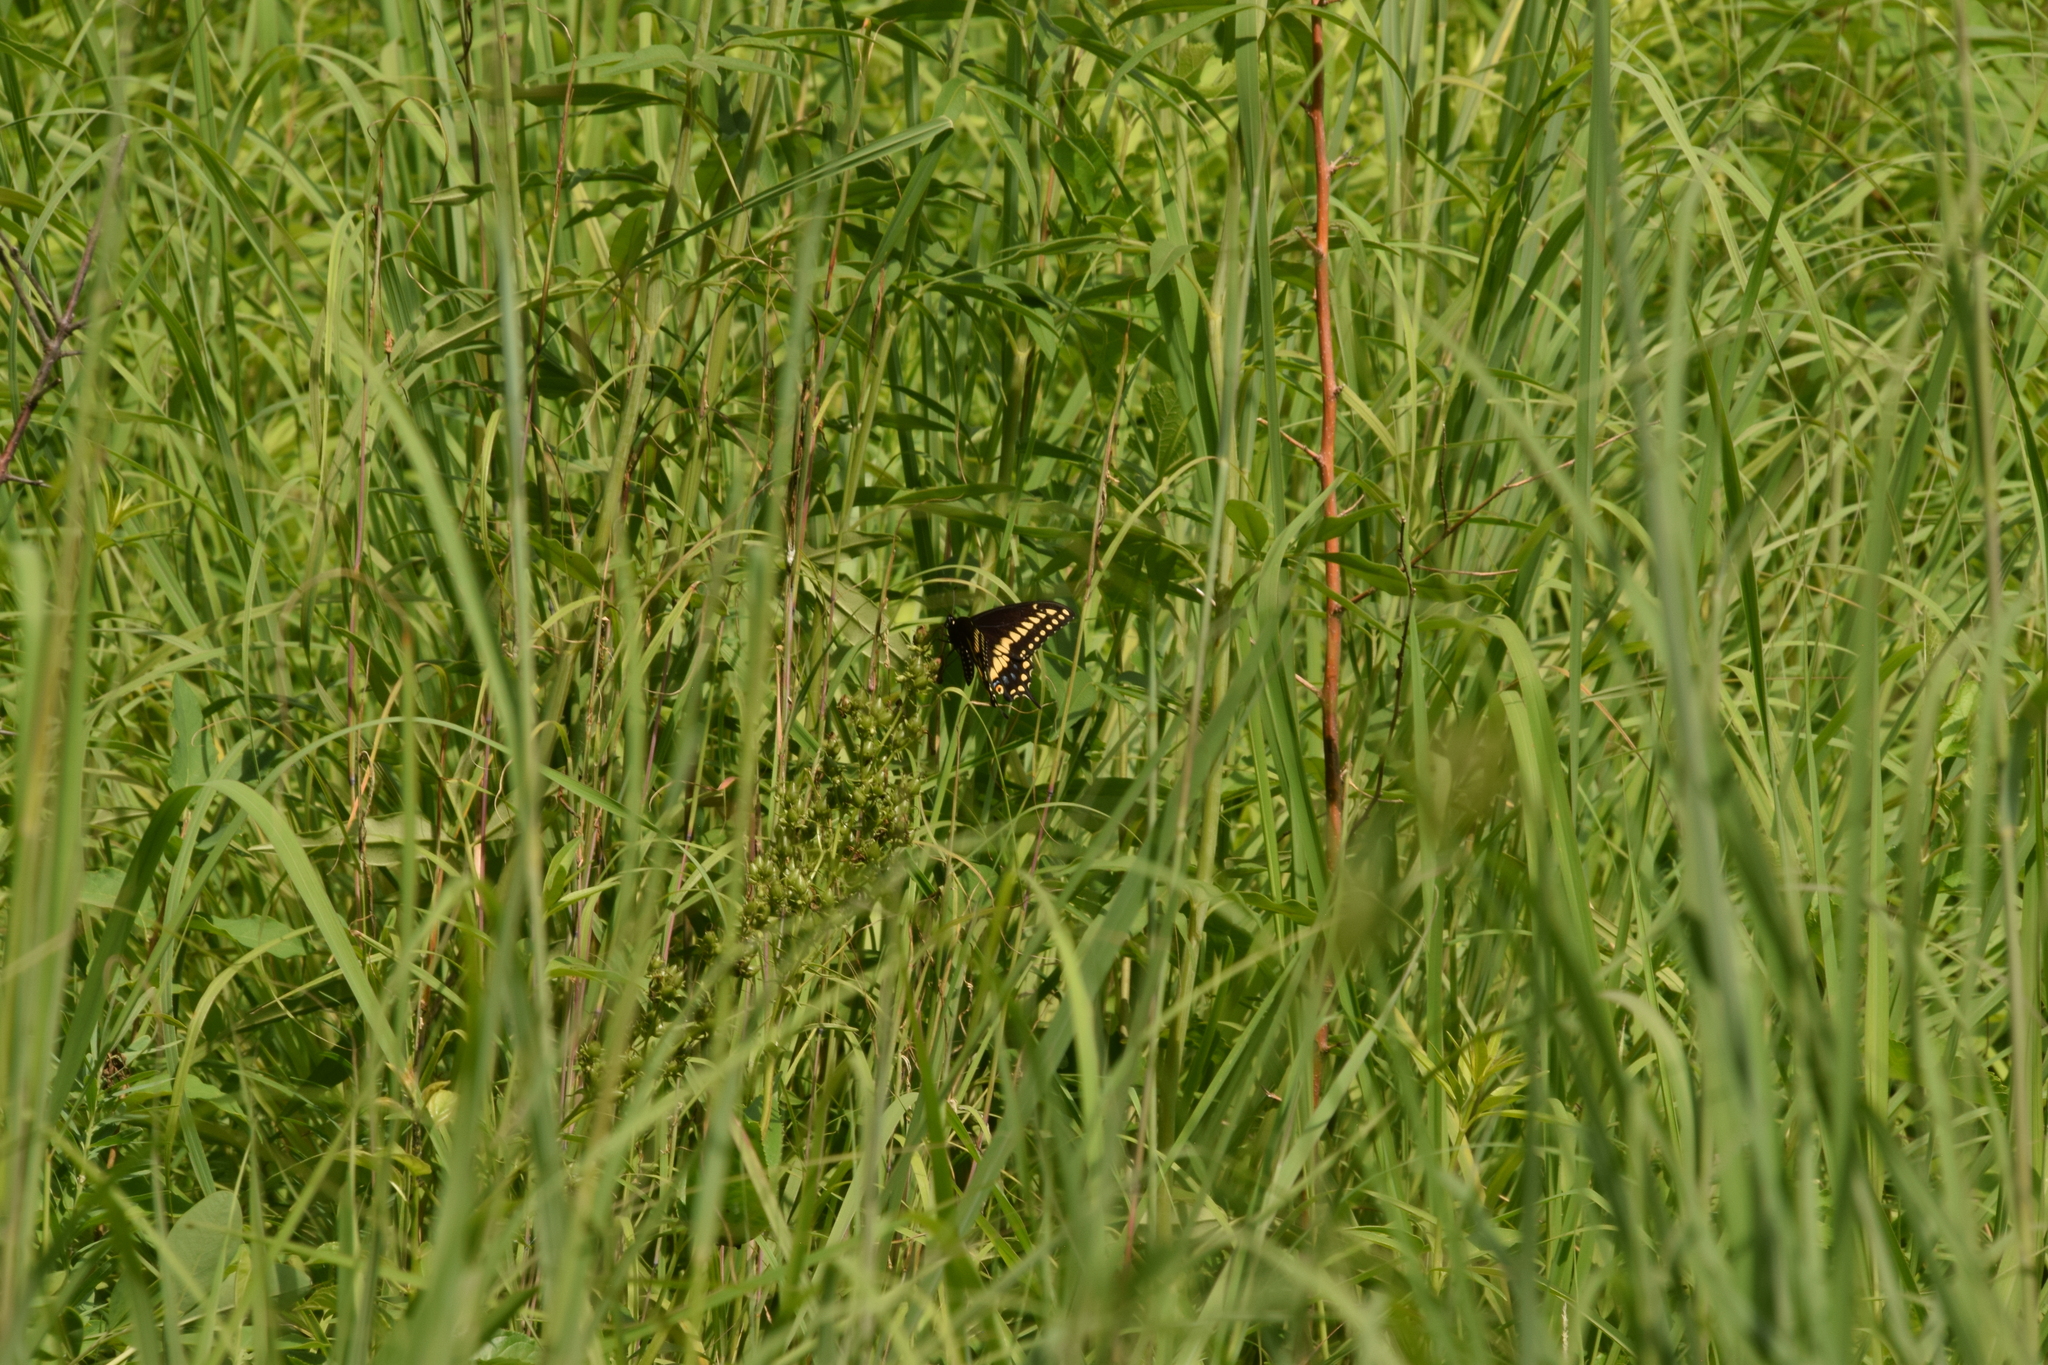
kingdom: Animalia
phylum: Arthropoda
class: Insecta
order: Lepidoptera
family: Papilionidae
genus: Papilio
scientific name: Papilio polyxenes
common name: Black swallowtail
